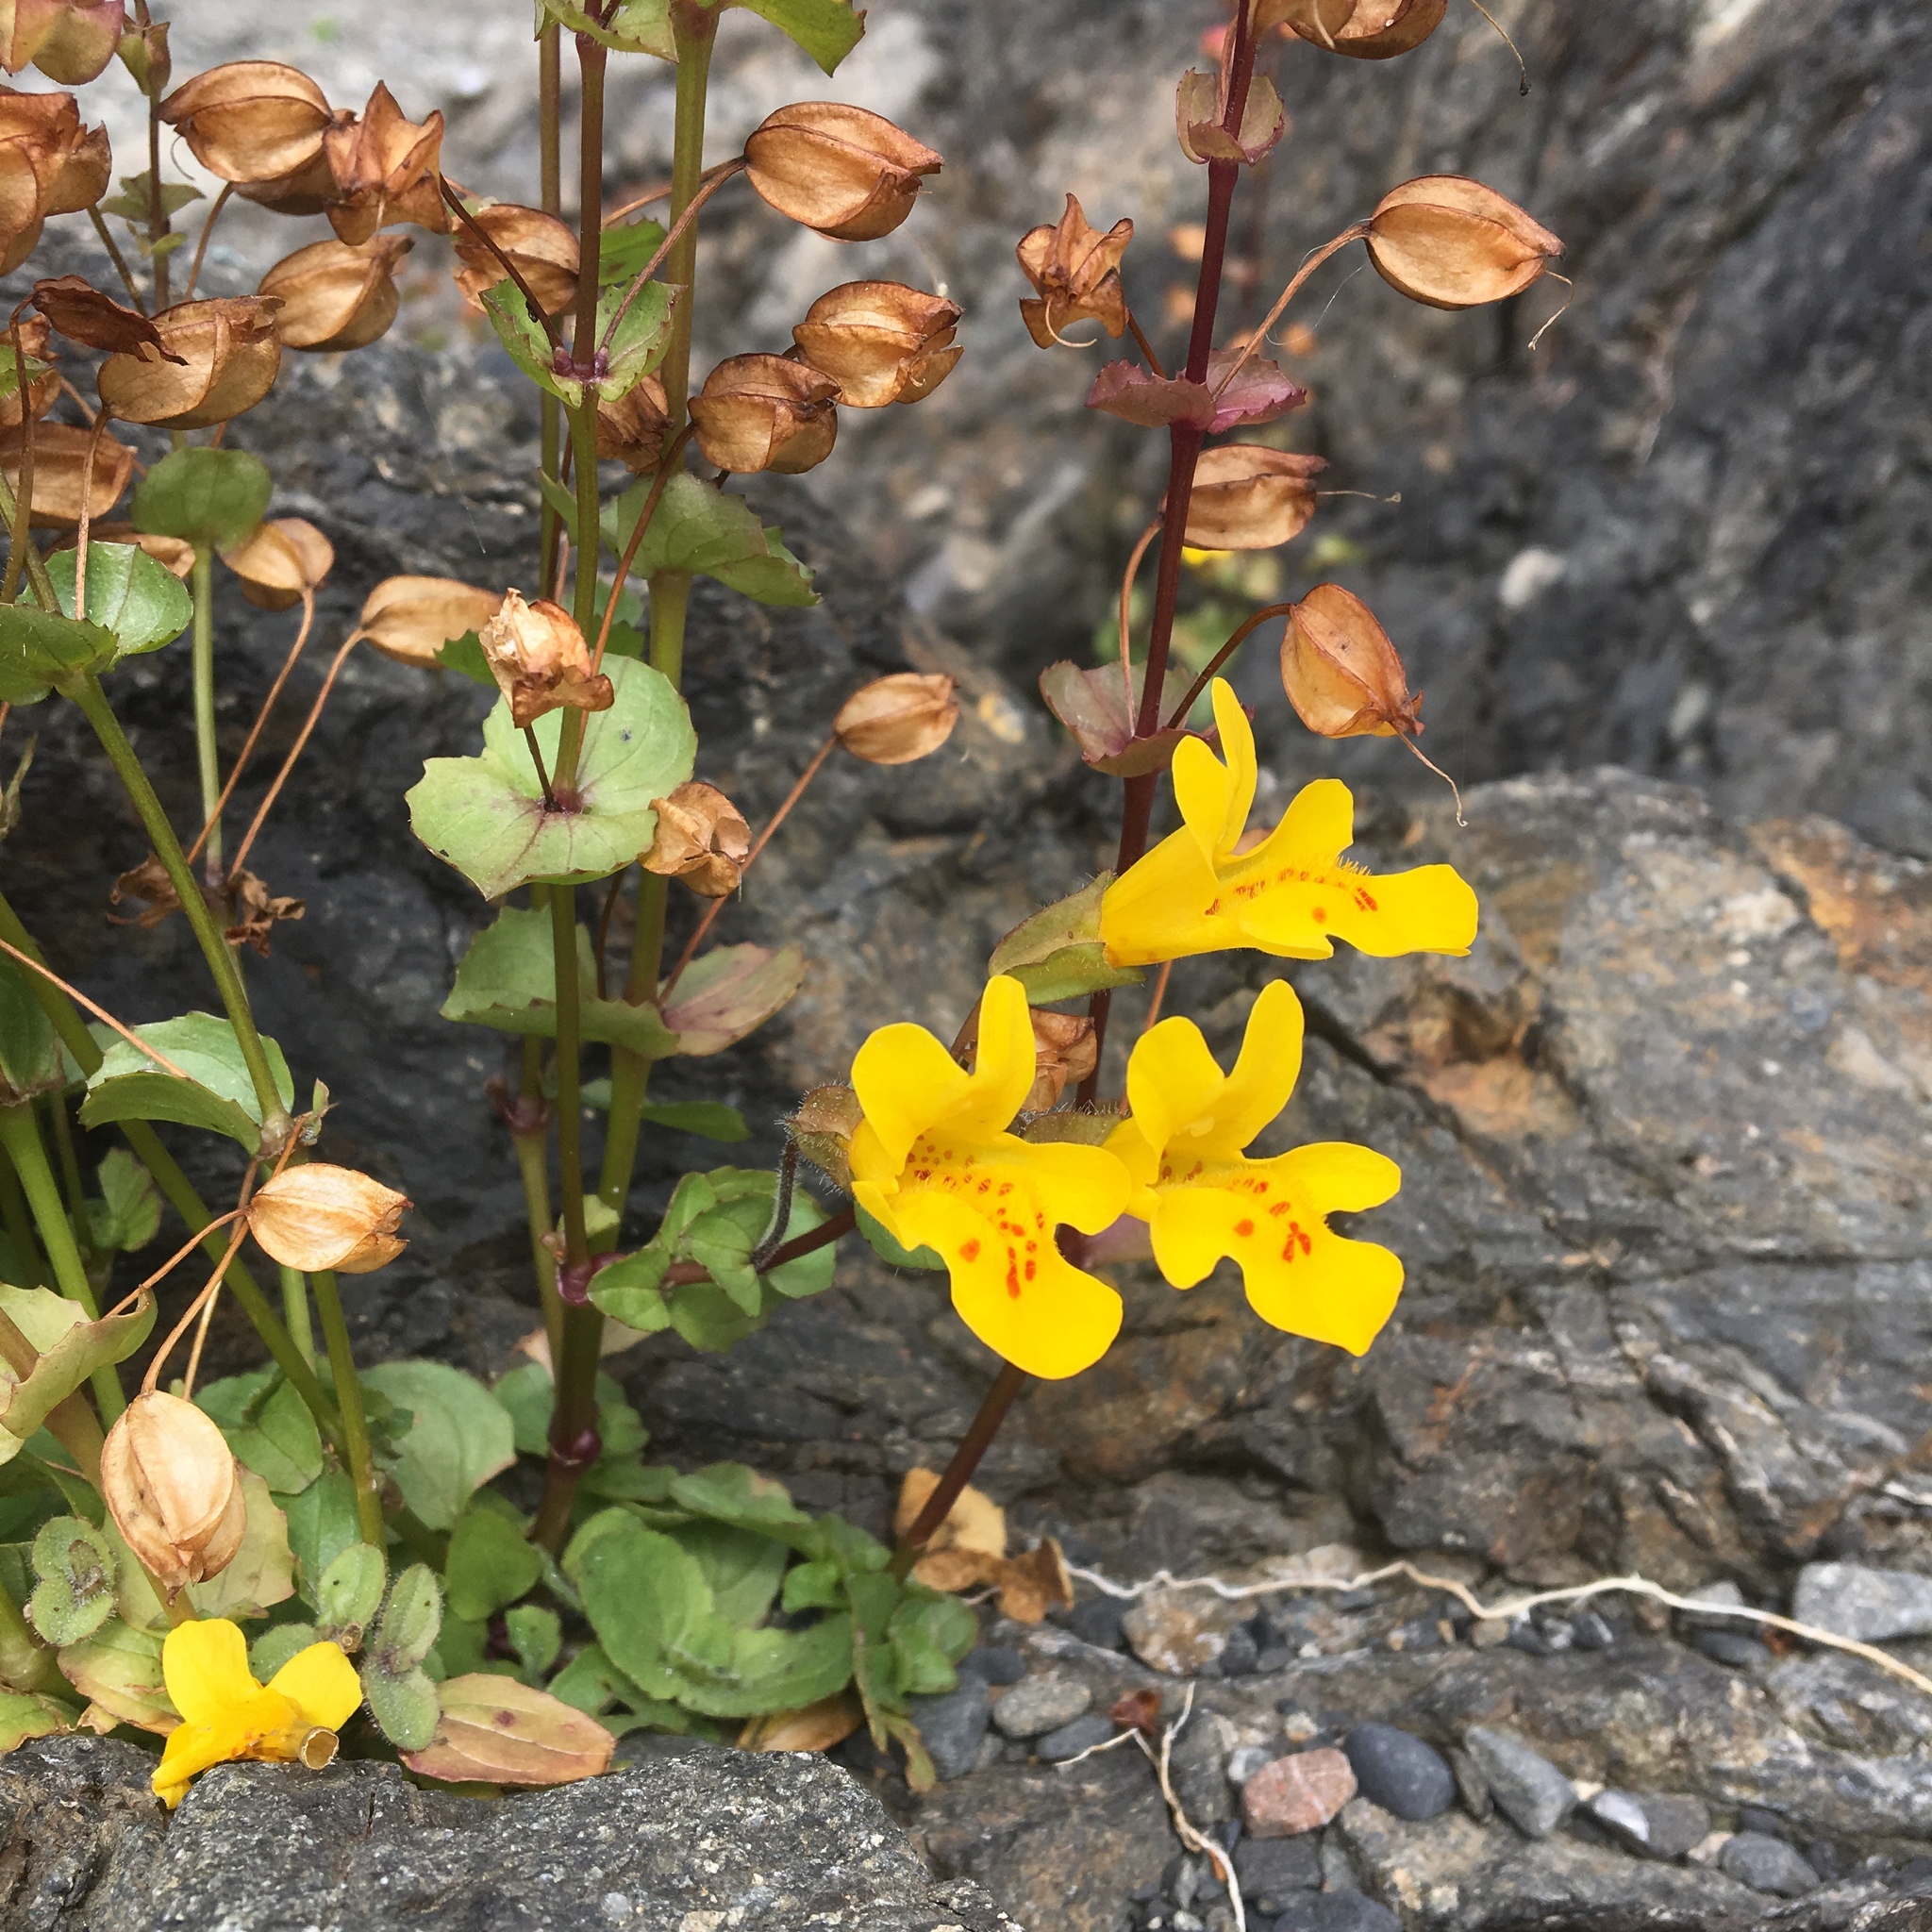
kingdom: Plantae
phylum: Tracheophyta
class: Magnoliopsida
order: Lamiales
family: Phrymaceae
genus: Erythranthe
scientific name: Erythranthe guttata
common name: Monkeyflower
